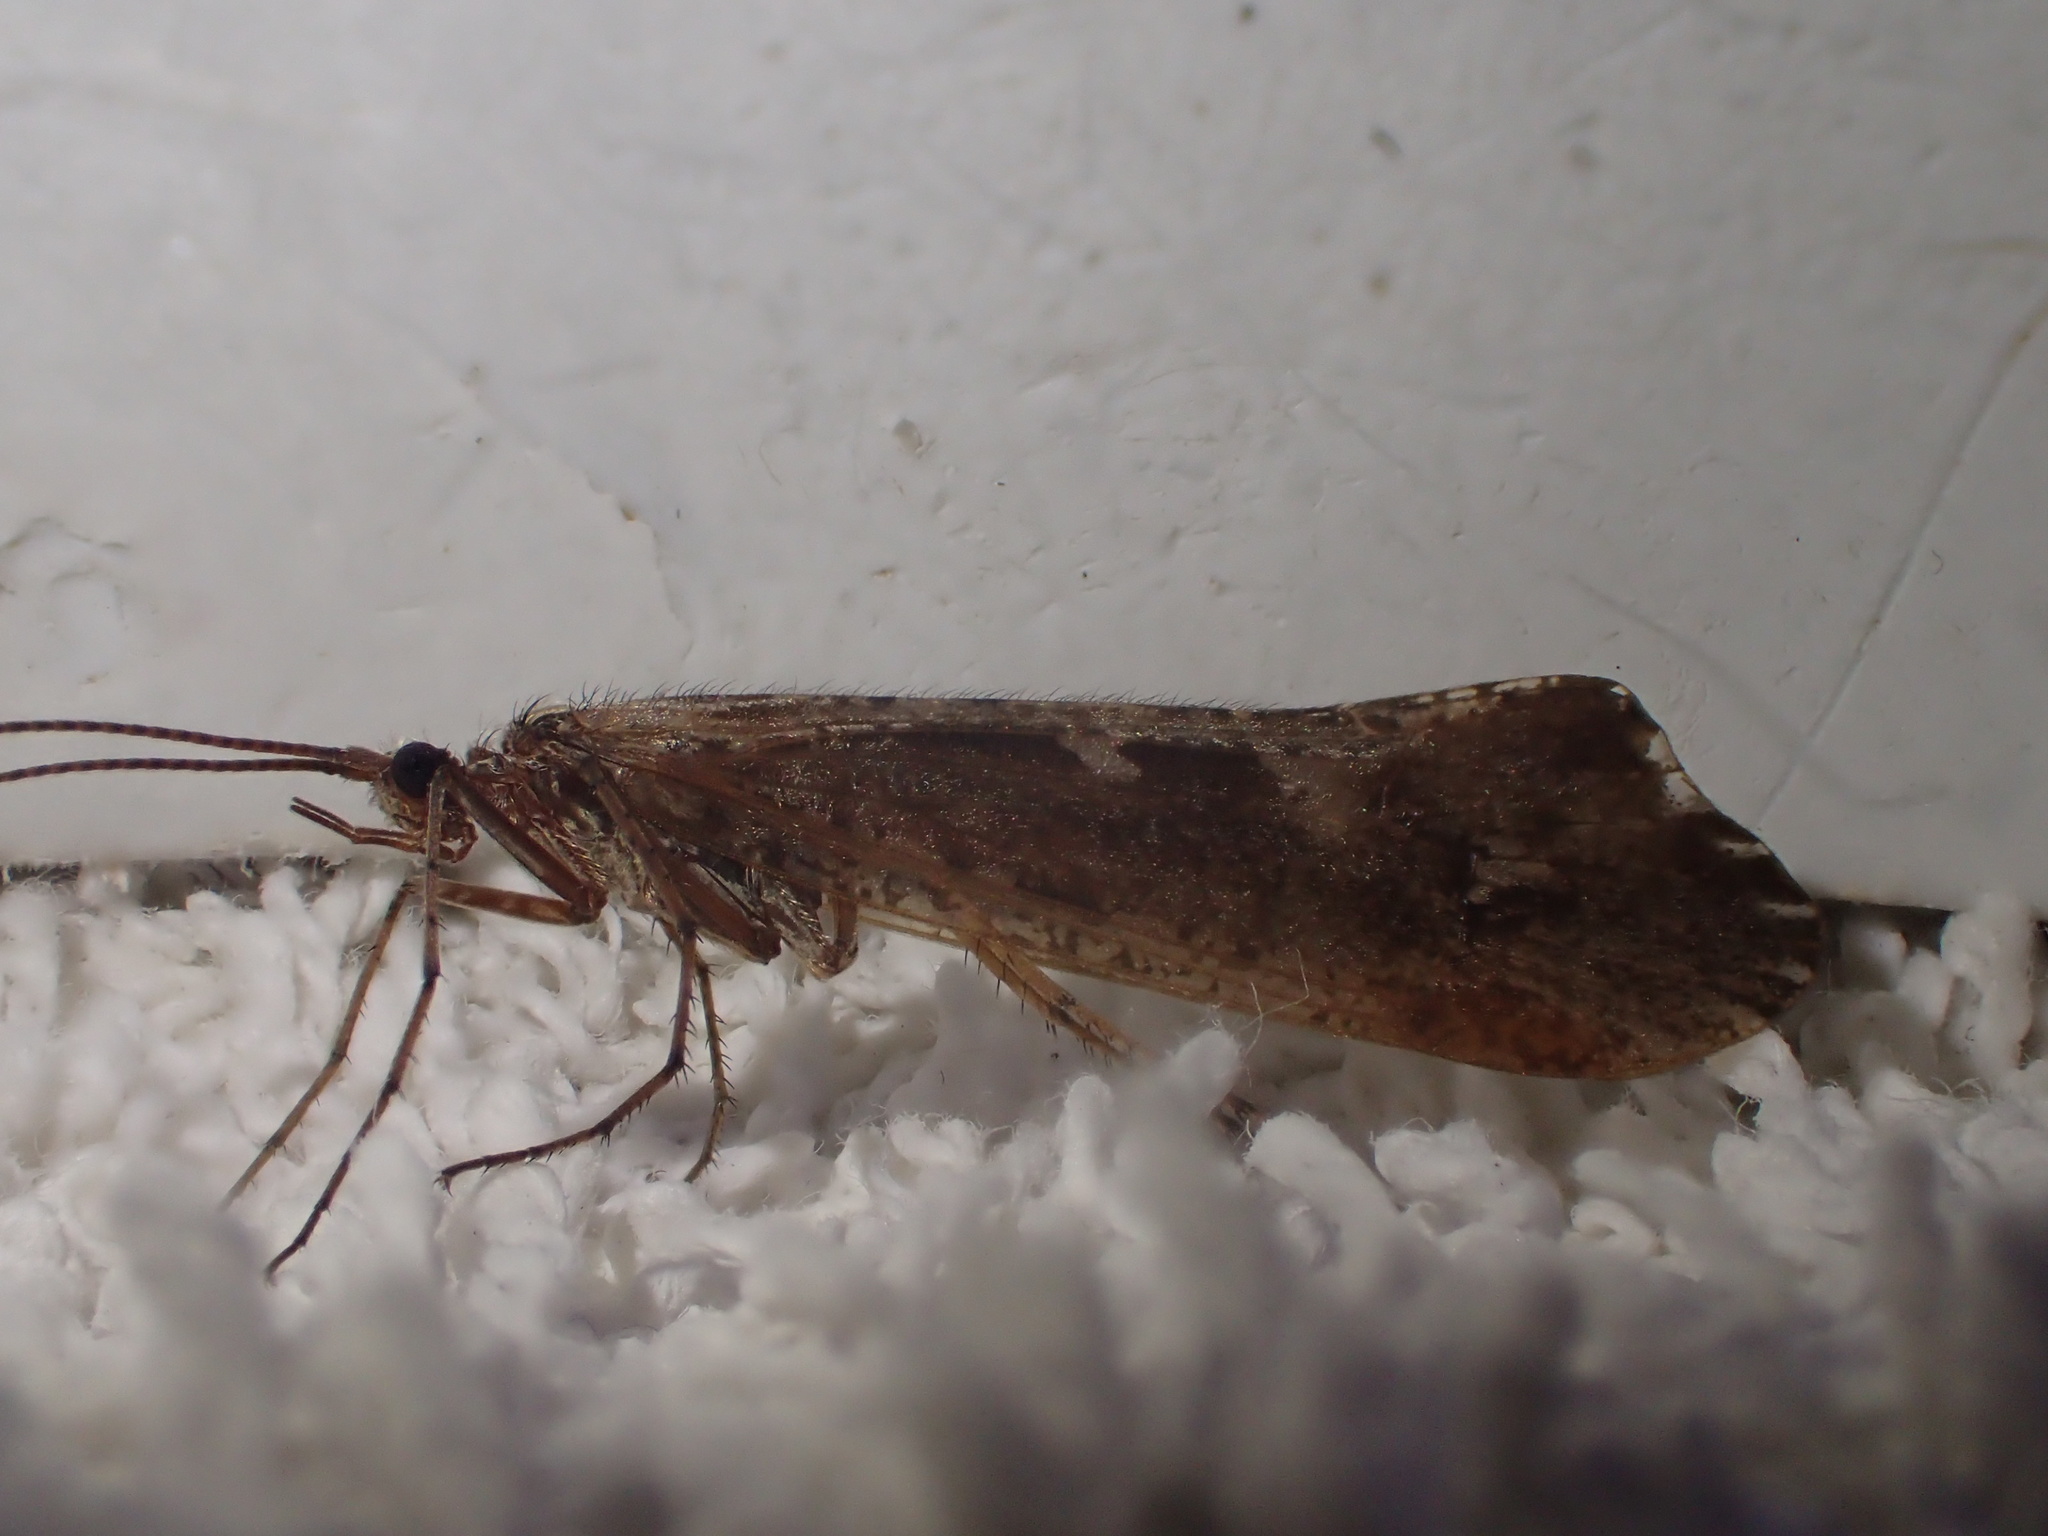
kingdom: Animalia
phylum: Arthropoda
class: Insecta
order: Trichoptera
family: Limnephilidae
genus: Glyphopsyche
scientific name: Glyphopsyche irrorata
